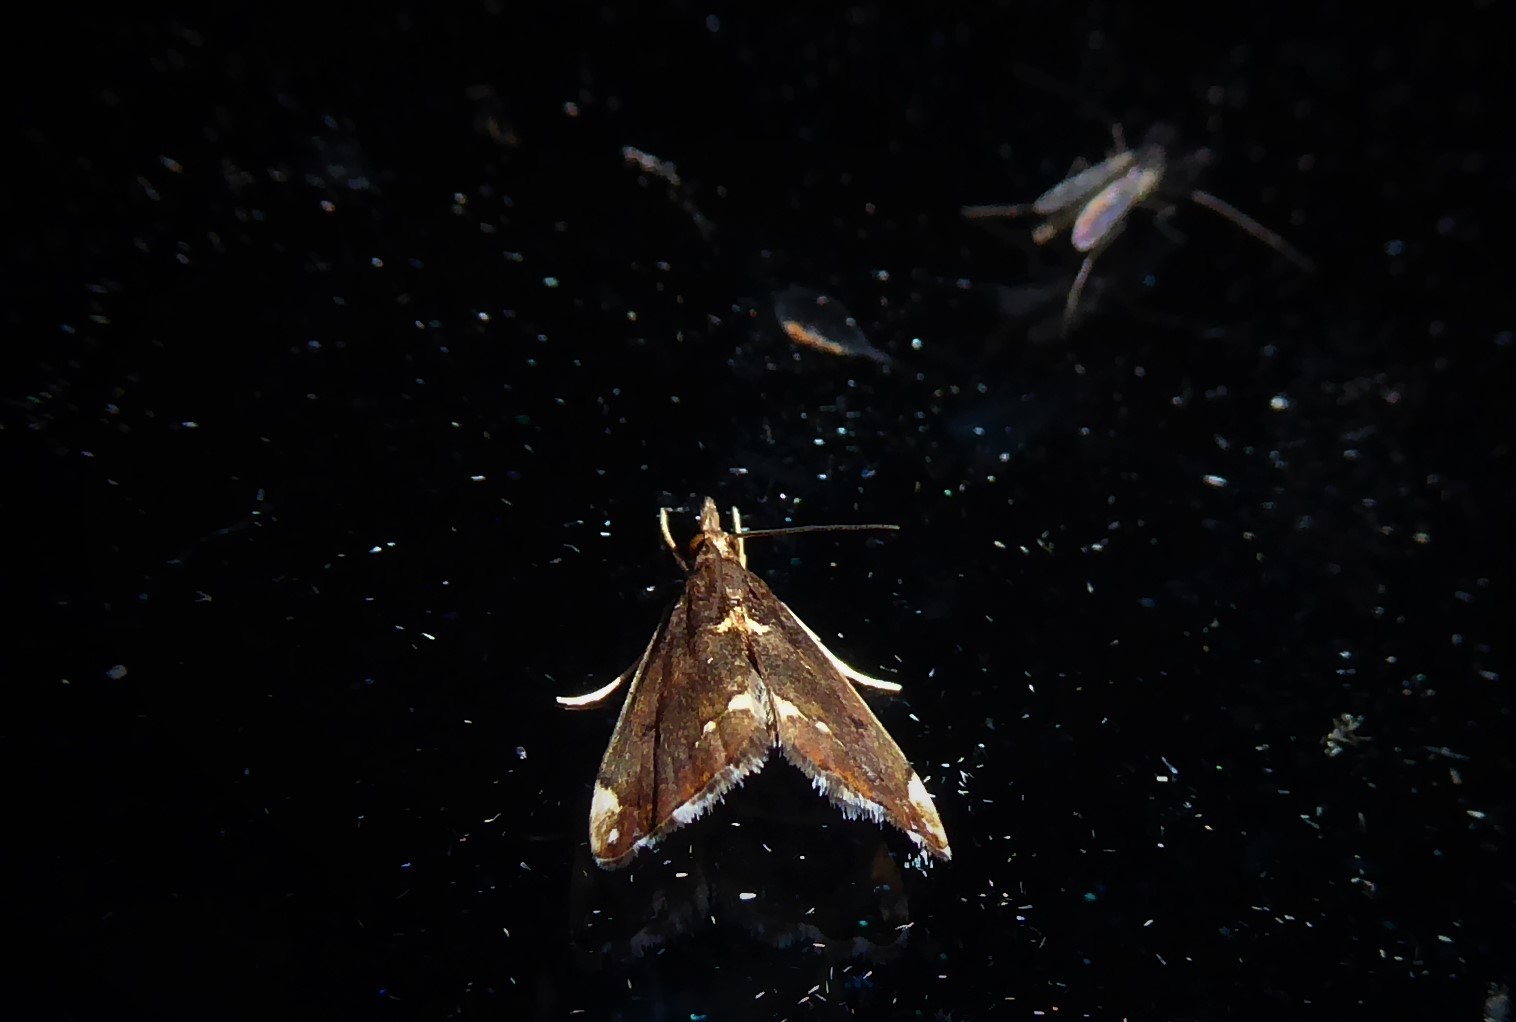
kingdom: Animalia
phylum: Arthropoda
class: Insecta
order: Lepidoptera
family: Crambidae
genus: Glaucocharis
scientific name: Glaucocharis pyrsophanes
